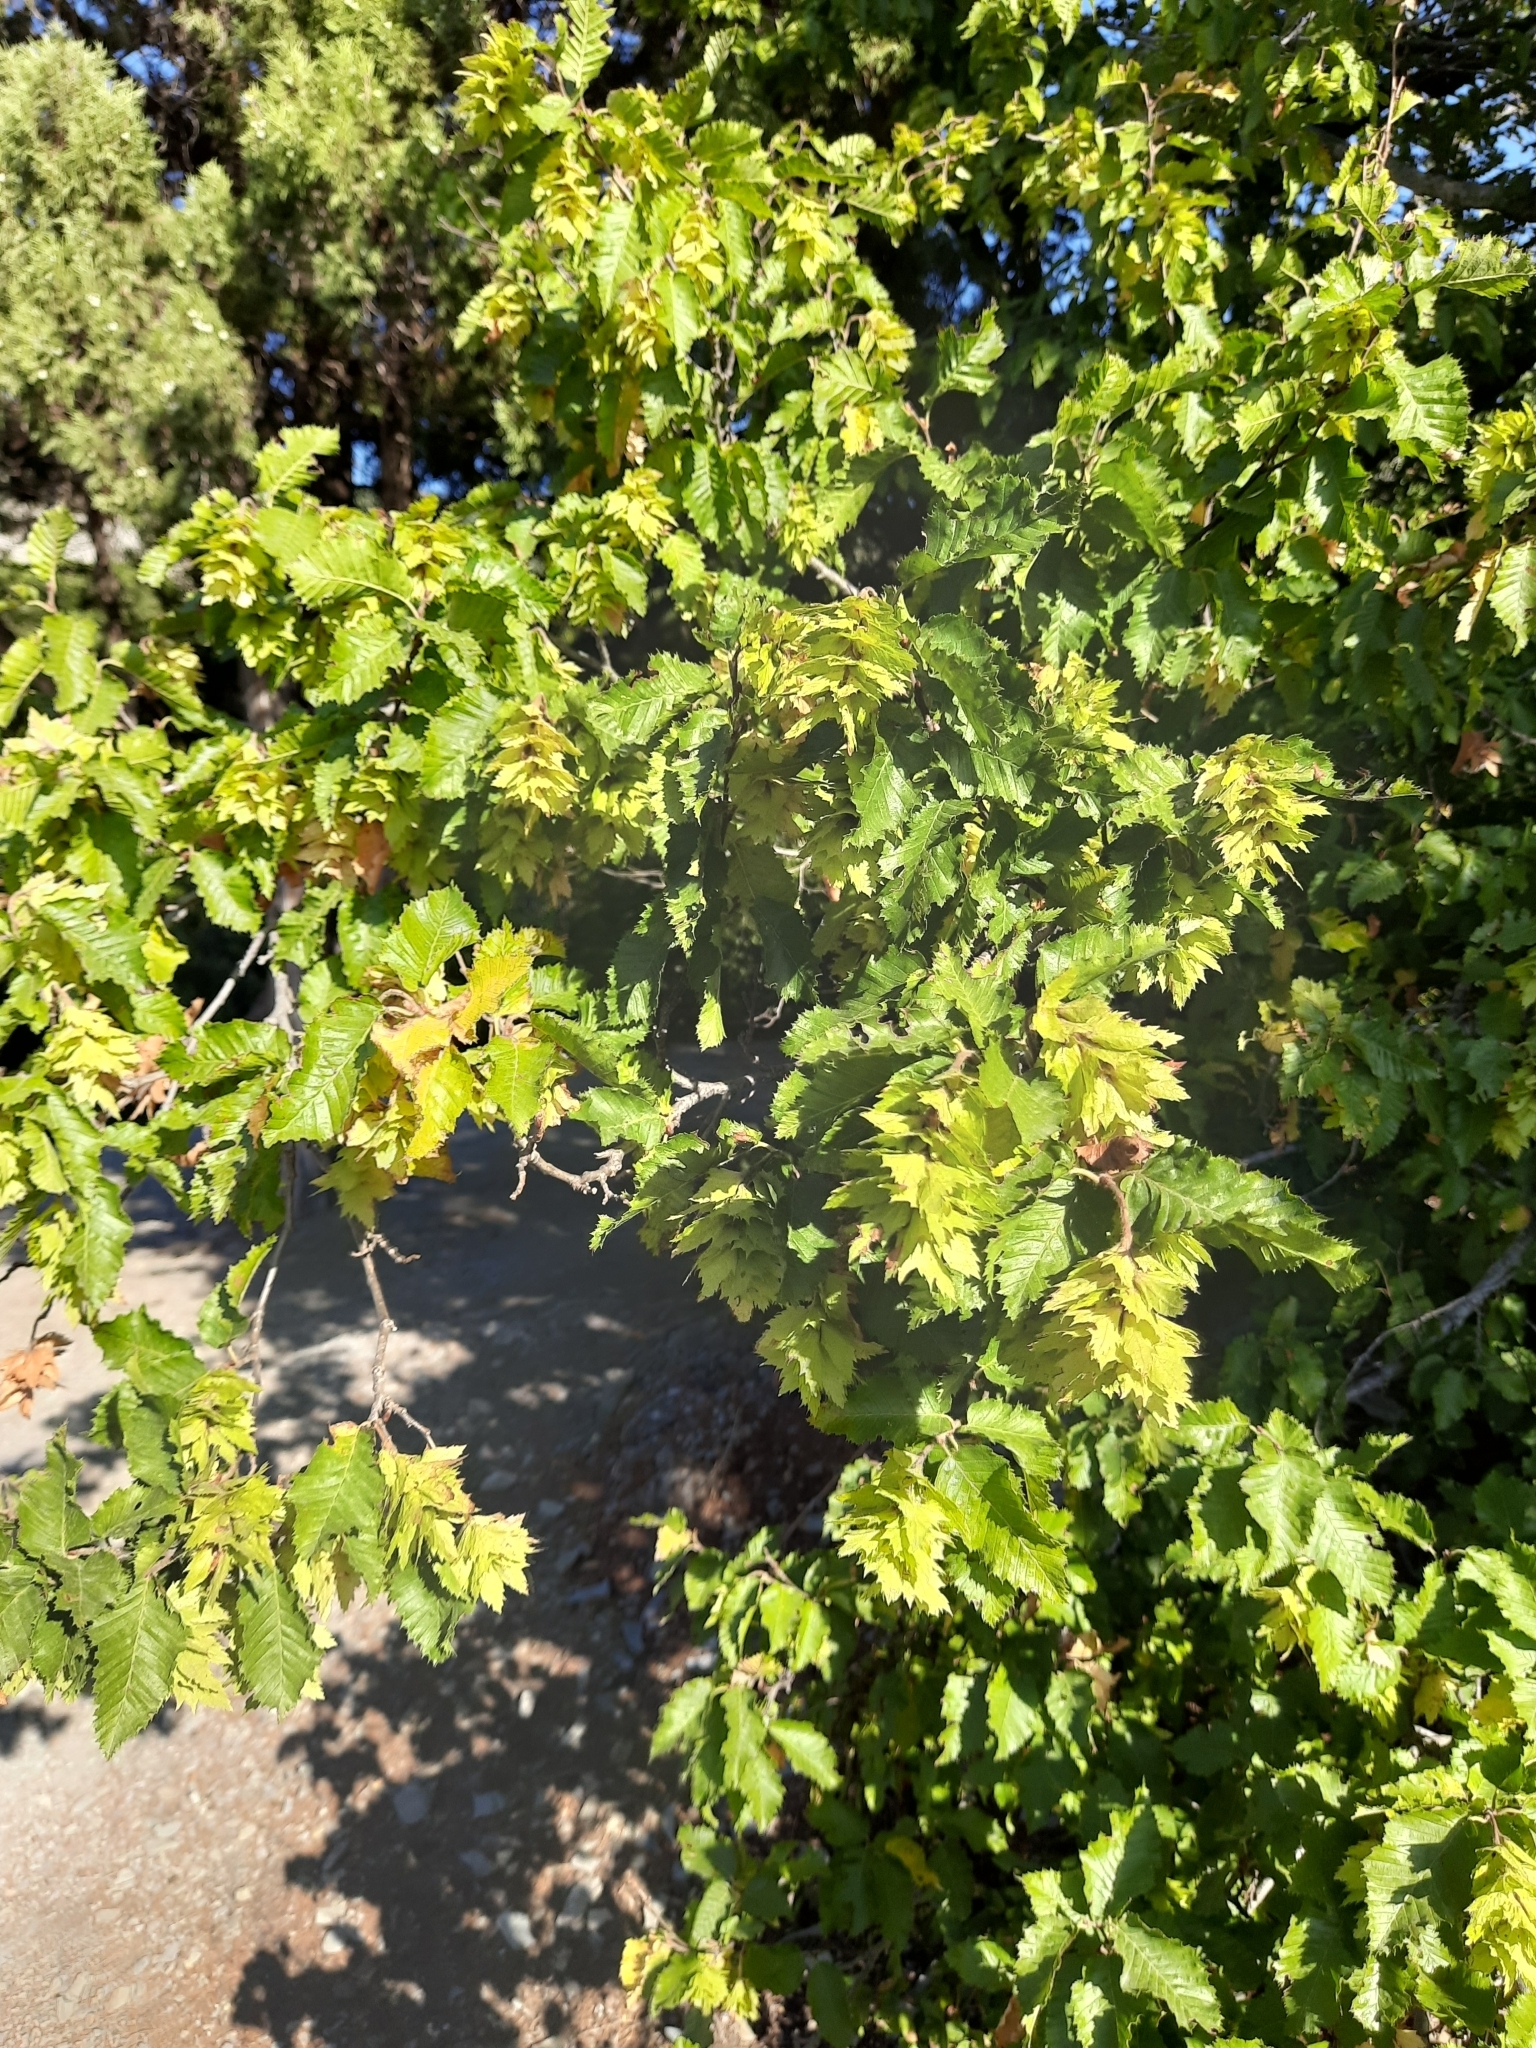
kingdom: Plantae
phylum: Tracheophyta
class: Magnoliopsida
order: Fagales
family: Betulaceae
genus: Carpinus
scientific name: Carpinus orientalis
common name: Eastern hornbeam
